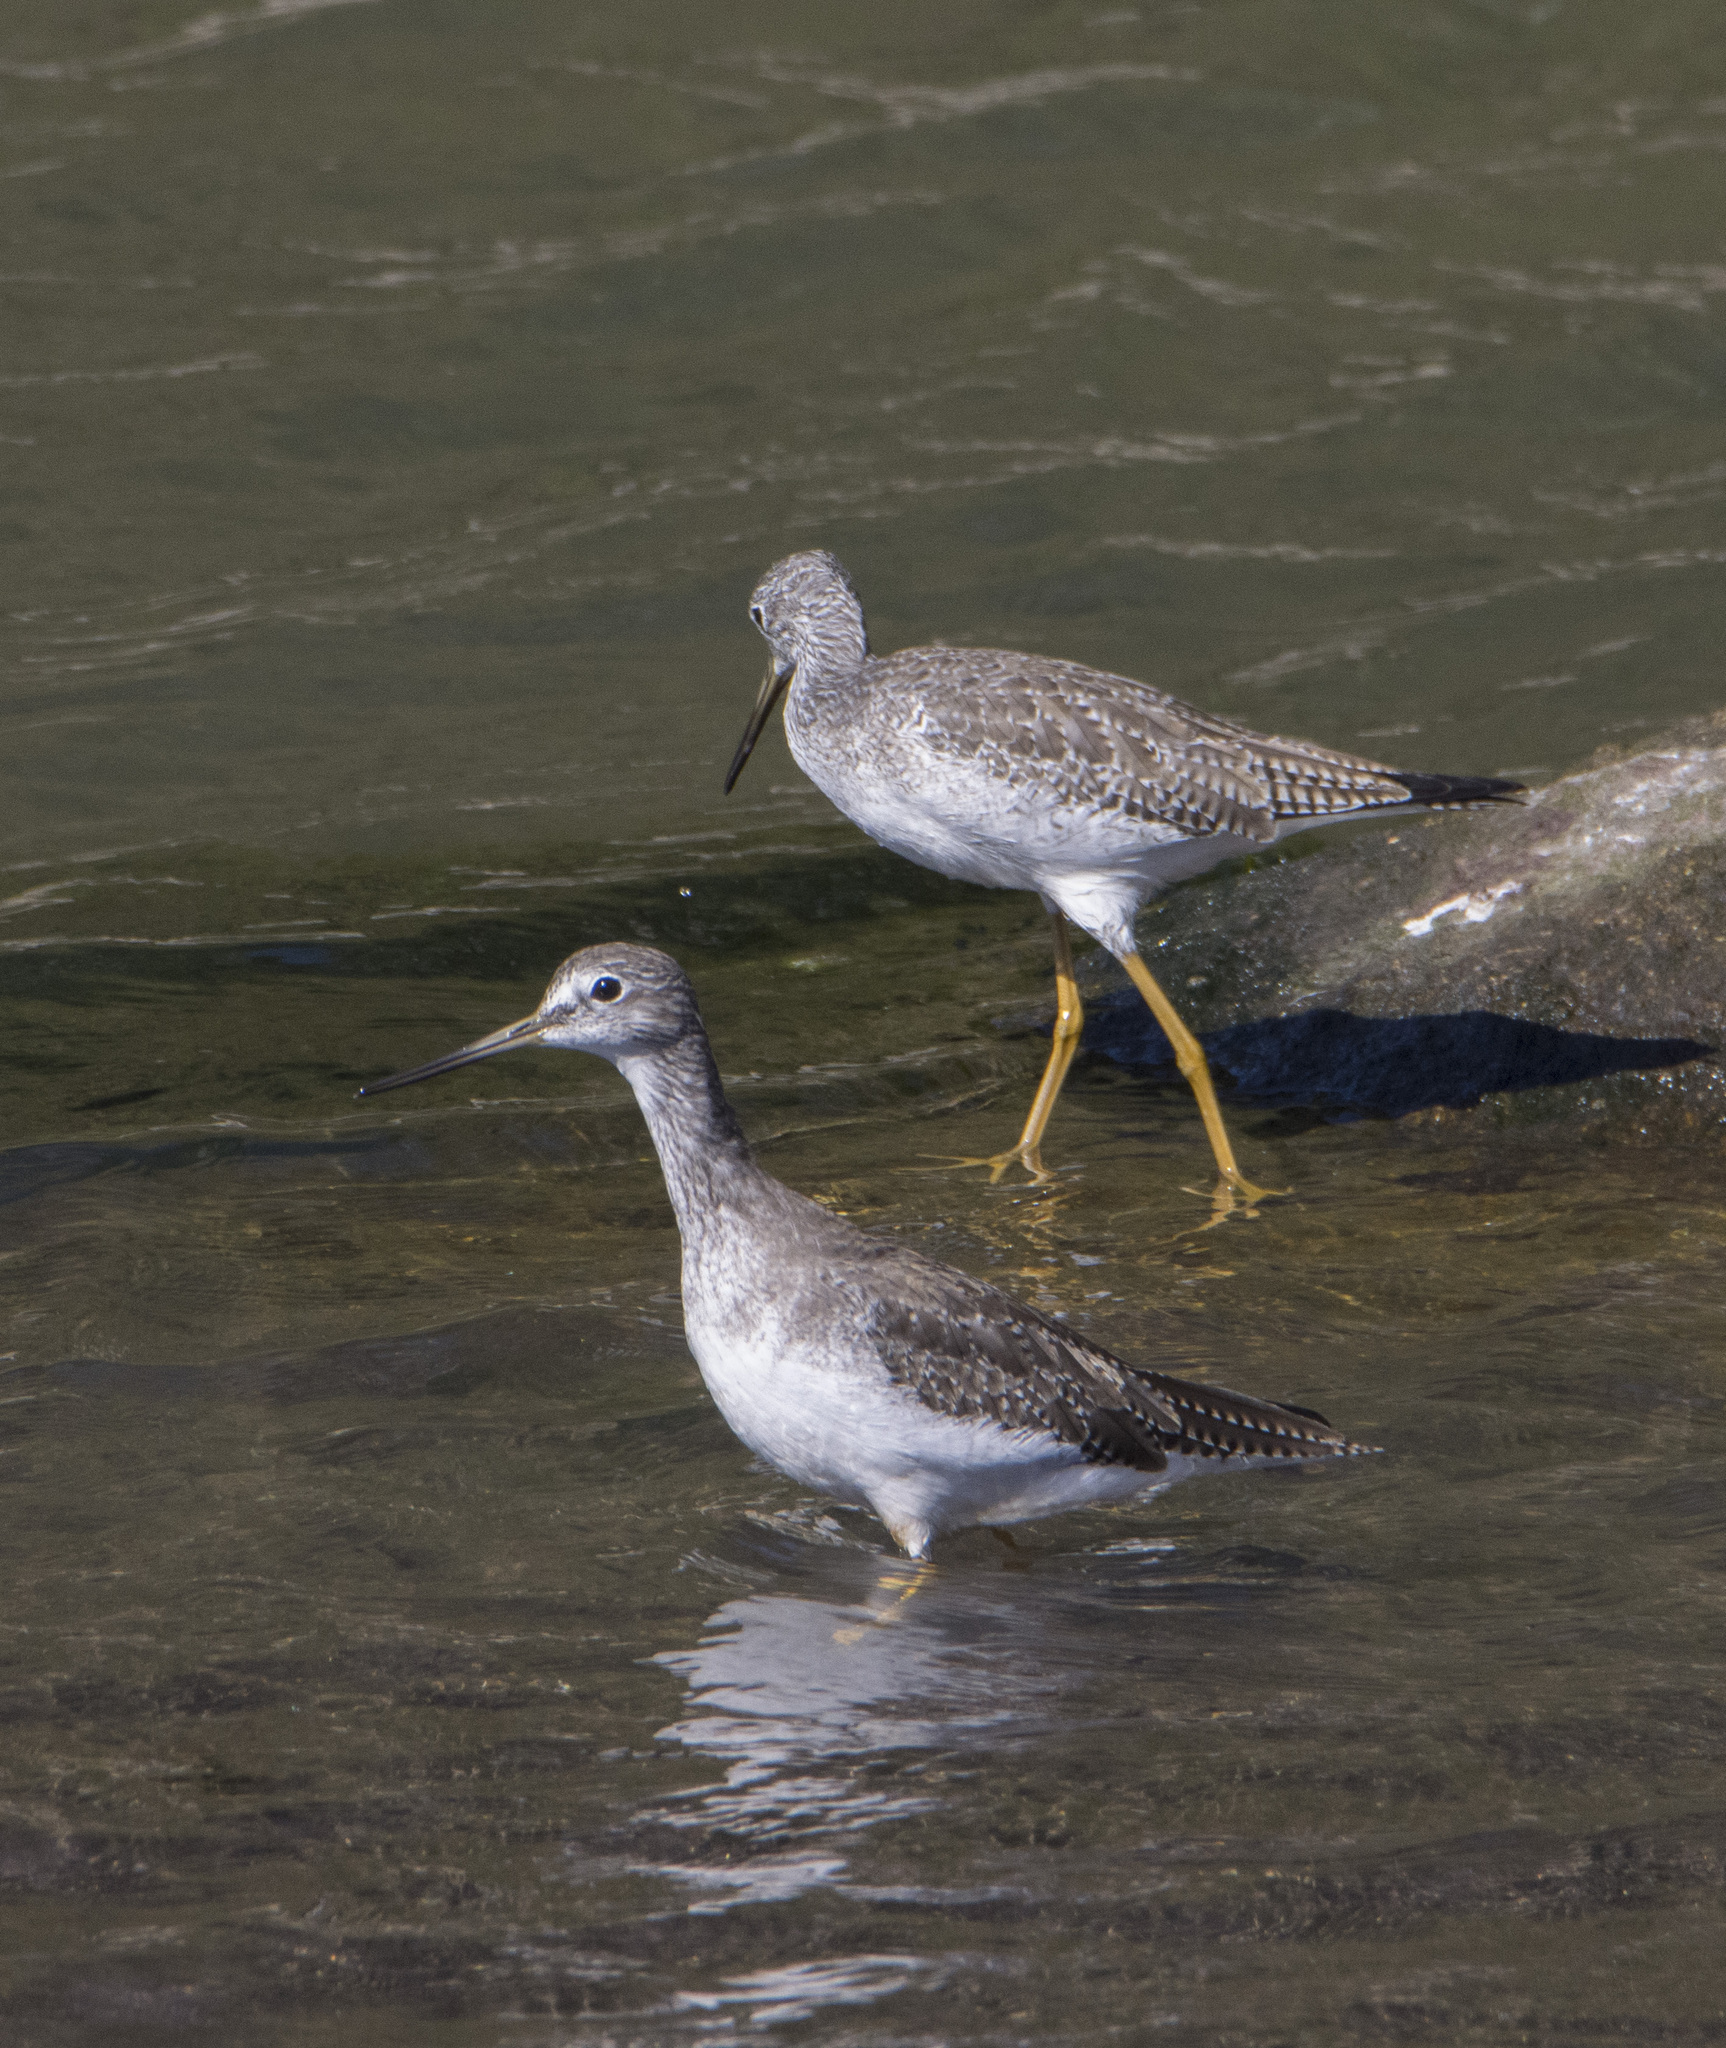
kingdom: Animalia
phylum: Chordata
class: Aves
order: Charadriiformes
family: Scolopacidae
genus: Tringa
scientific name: Tringa melanoleuca
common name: Greater yellowlegs
